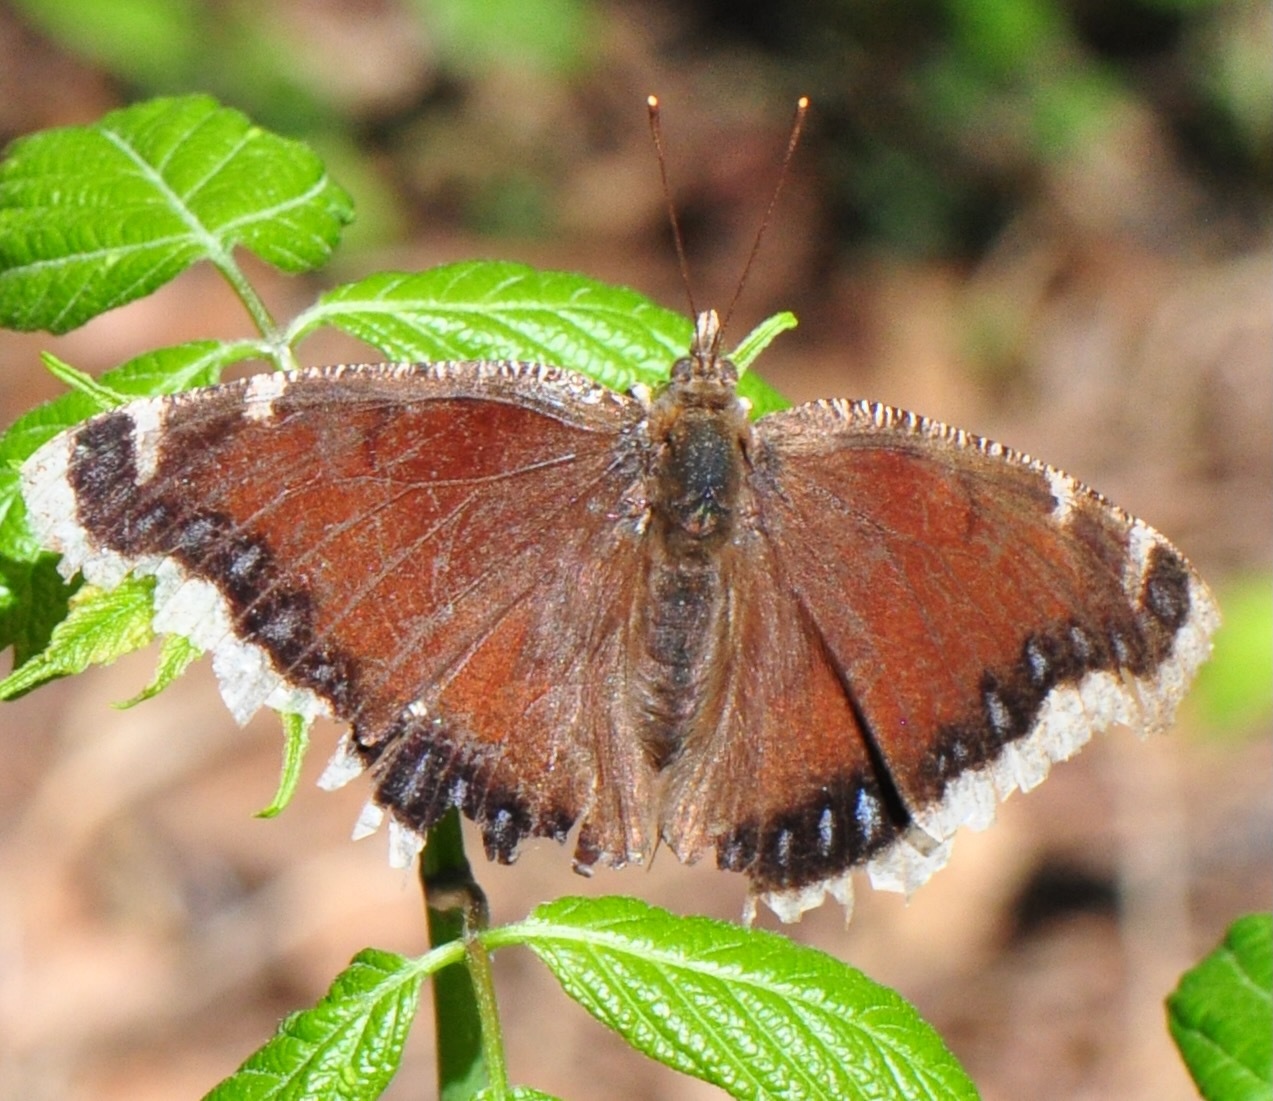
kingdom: Animalia
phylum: Arthropoda
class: Insecta
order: Lepidoptera
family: Nymphalidae
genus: Nymphalis
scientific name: Nymphalis antiopa
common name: Camberwell beauty
